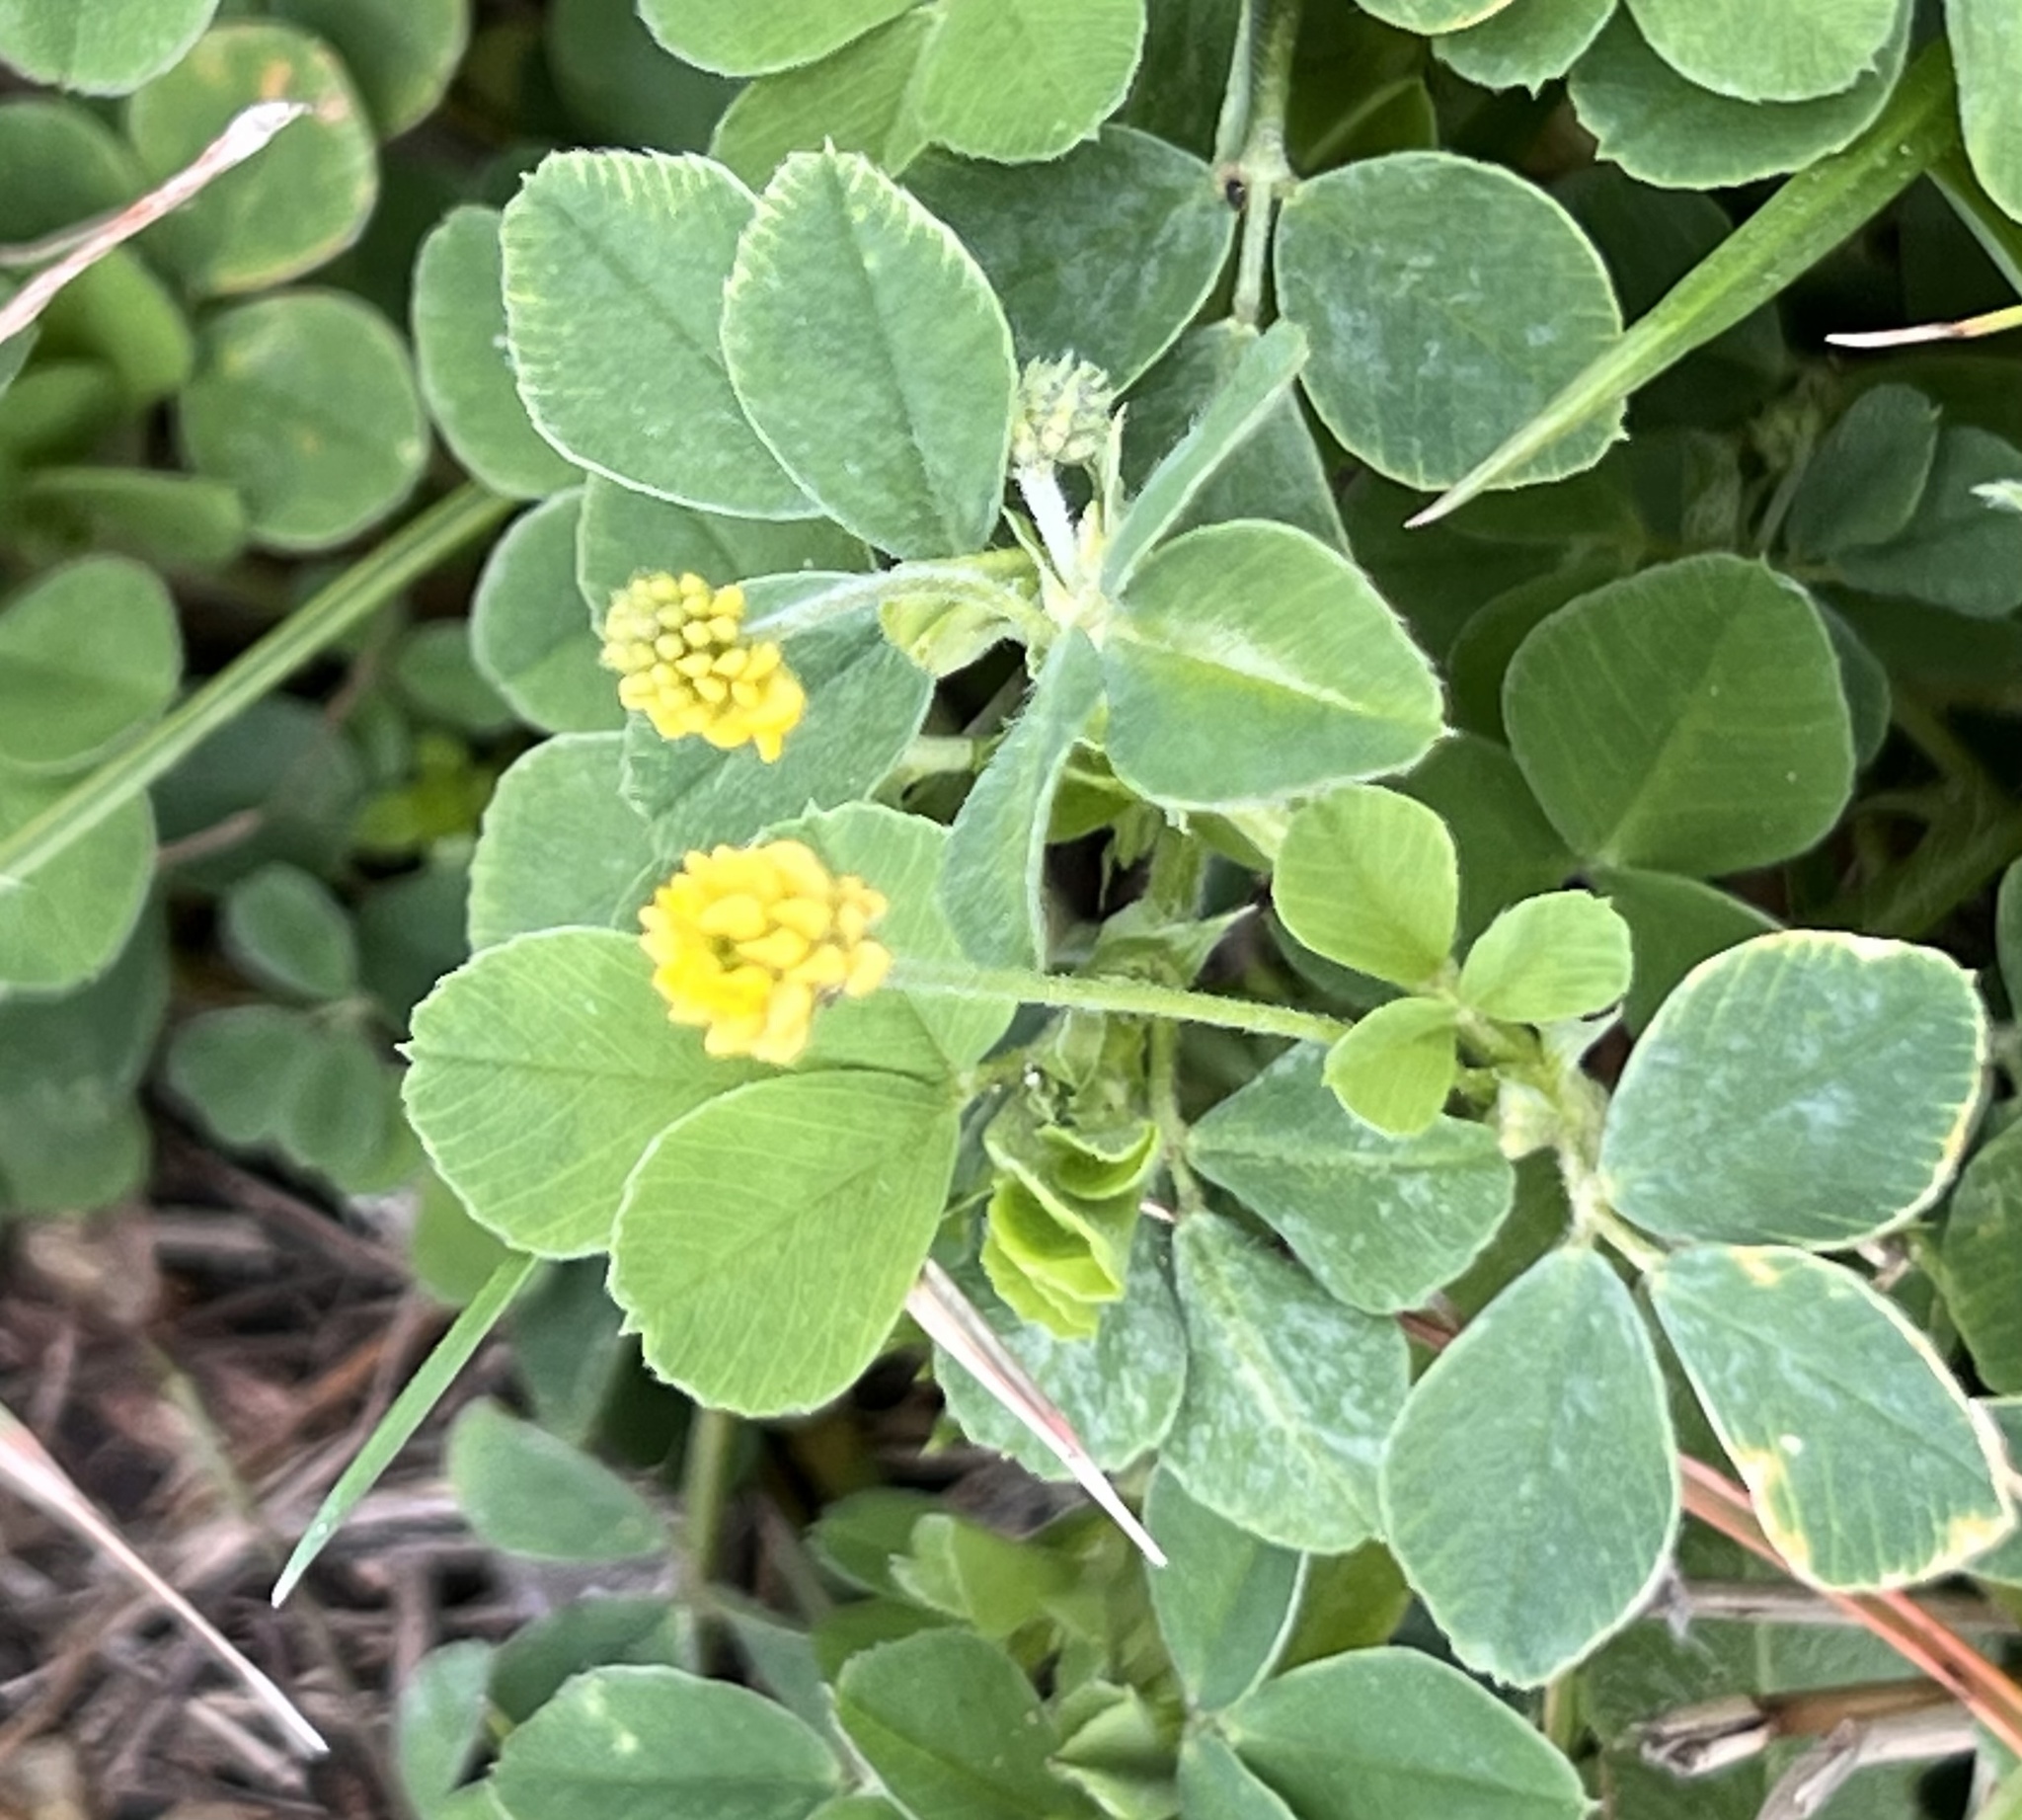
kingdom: Plantae
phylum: Tracheophyta
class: Magnoliopsida
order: Fabales
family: Fabaceae
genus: Medicago
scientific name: Medicago lupulina
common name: Black medick
